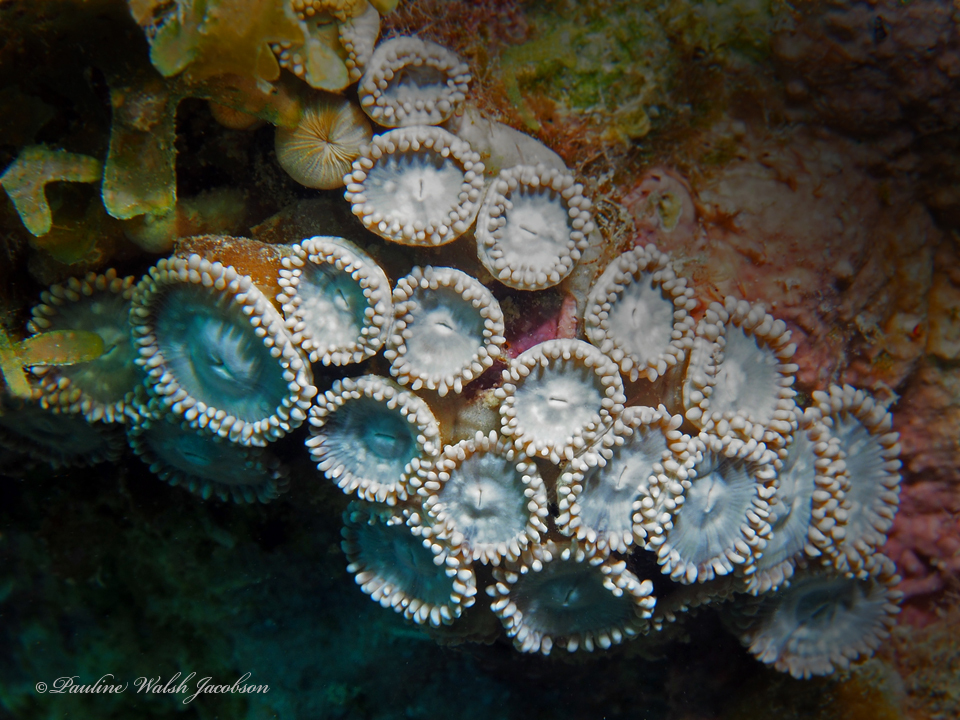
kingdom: Animalia
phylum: Cnidaria
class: Anthozoa
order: Zoantharia
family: Zoanthidae
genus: Zoanthus
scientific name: Zoanthus pulchellus
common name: Mat zoanthid
